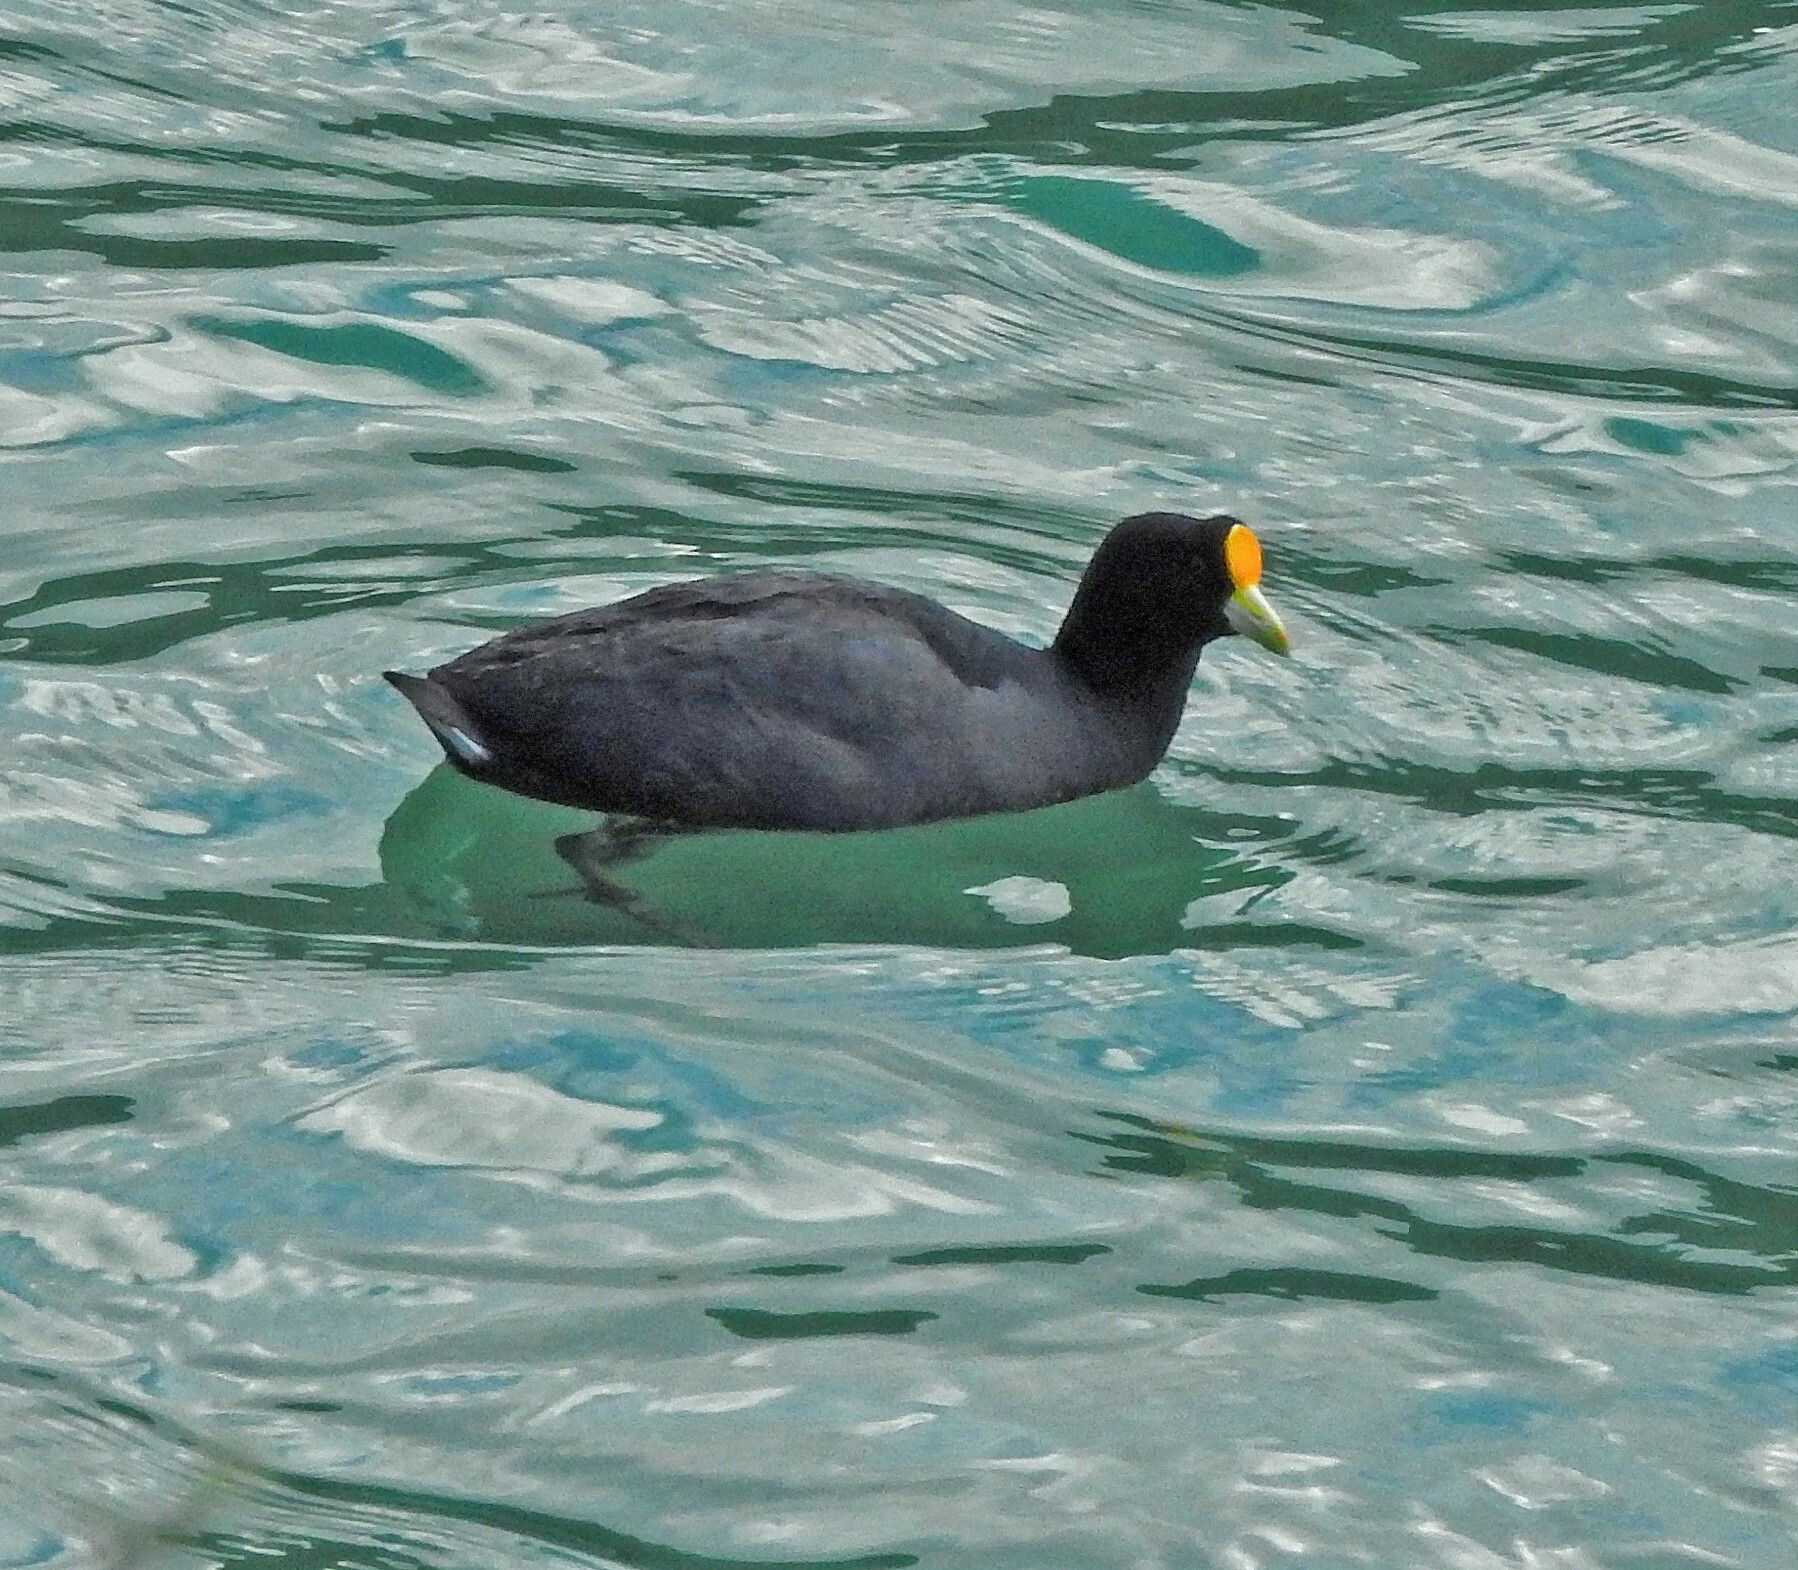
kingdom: Animalia
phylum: Chordata
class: Aves
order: Gruiformes
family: Rallidae
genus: Fulica
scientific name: Fulica leucoptera
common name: White-winged coot
